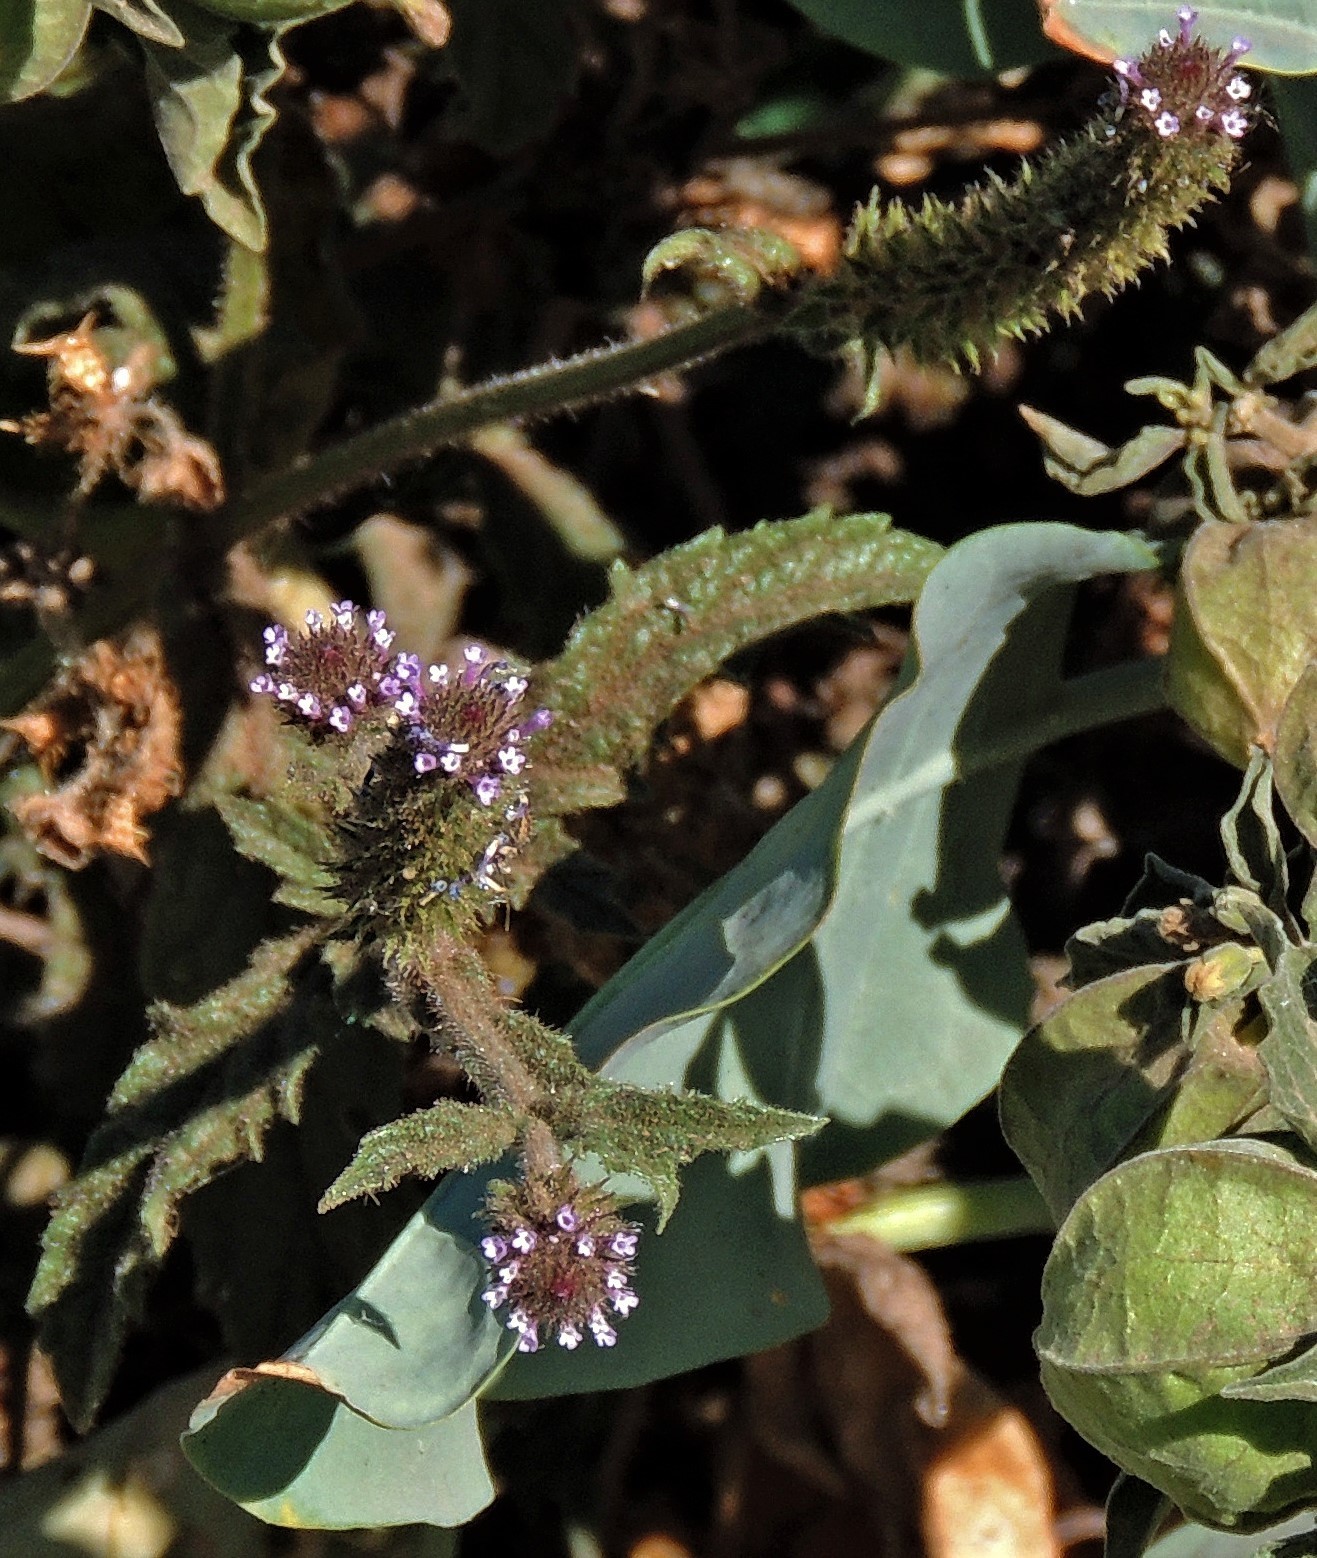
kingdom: Plantae
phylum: Tracheophyta
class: Magnoliopsida
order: Lamiales
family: Verbenaceae
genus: Verbena
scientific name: Verbena hispida
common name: Hairy vervain
